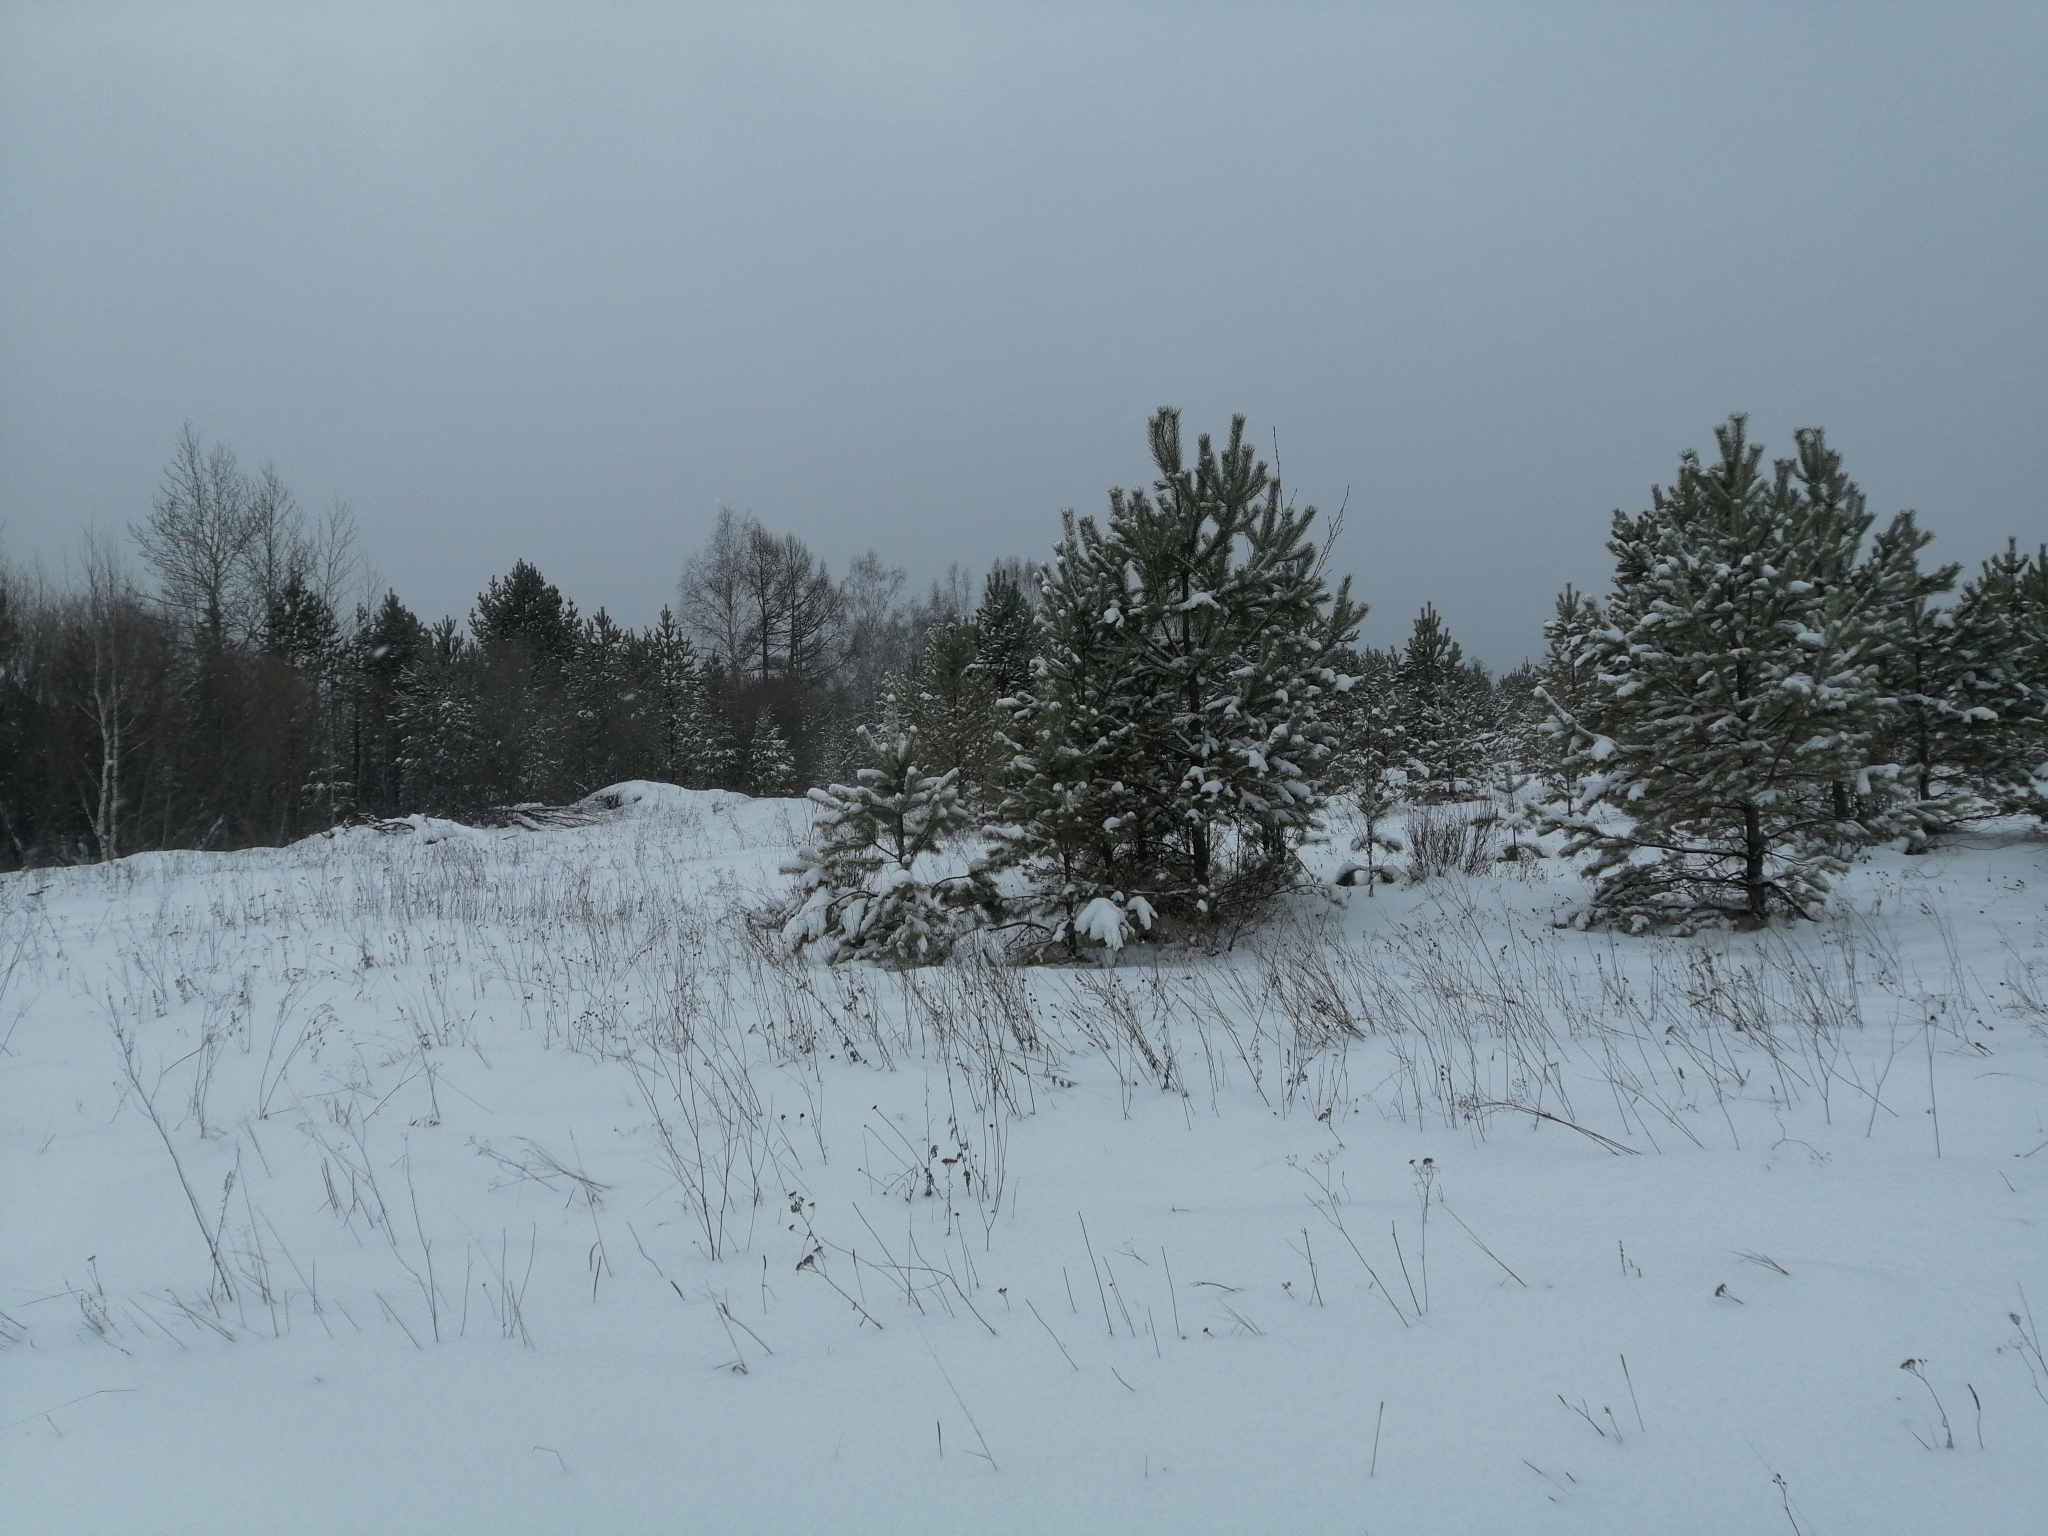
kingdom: Plantae
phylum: Tracheophyta
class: Pinopsida
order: Pinales
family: Pinaceae
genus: Pinus
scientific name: Pinus sylvestris
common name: Scots pine
